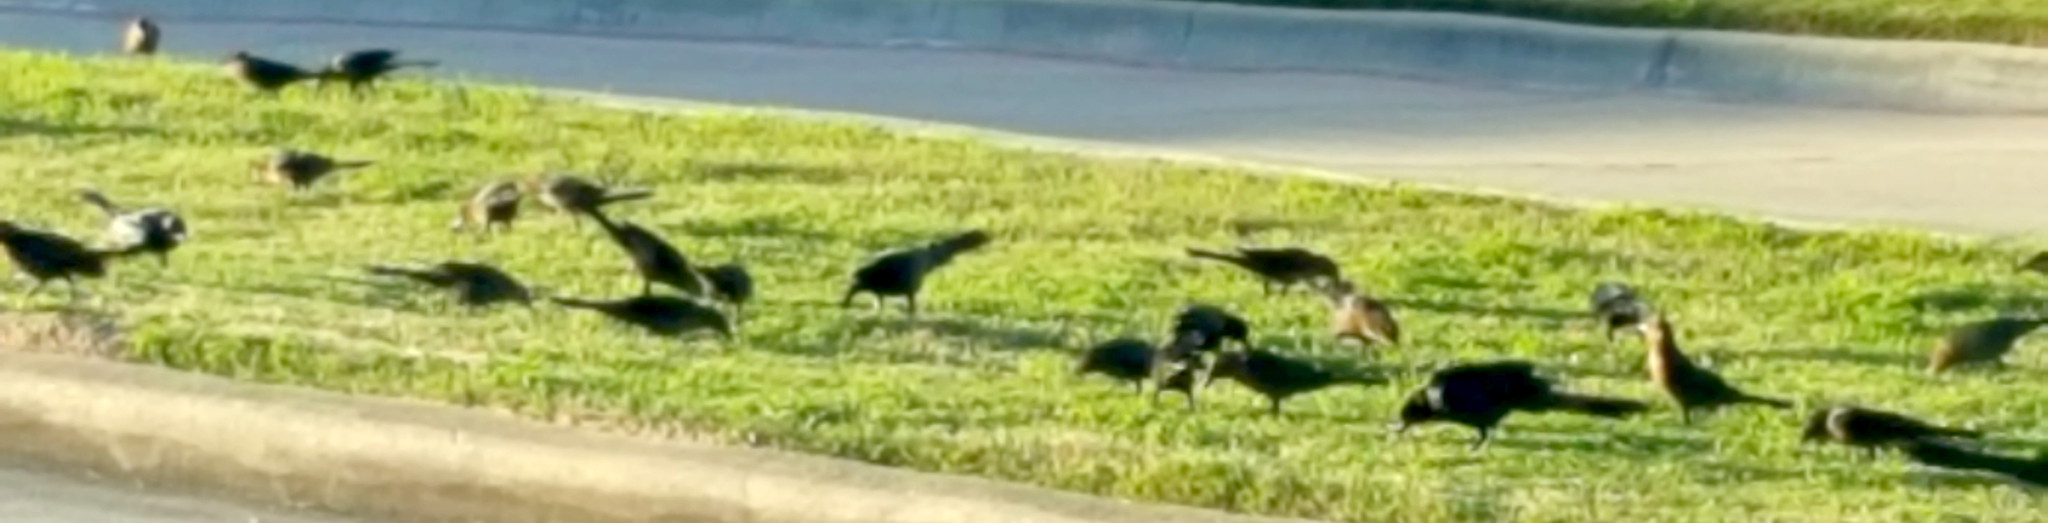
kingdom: Animalia
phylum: Chordata
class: Aves
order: Passeriformes
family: Icteridae
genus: Quiscalus
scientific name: Quiscalus mexicanus
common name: Great-tailed grackle
